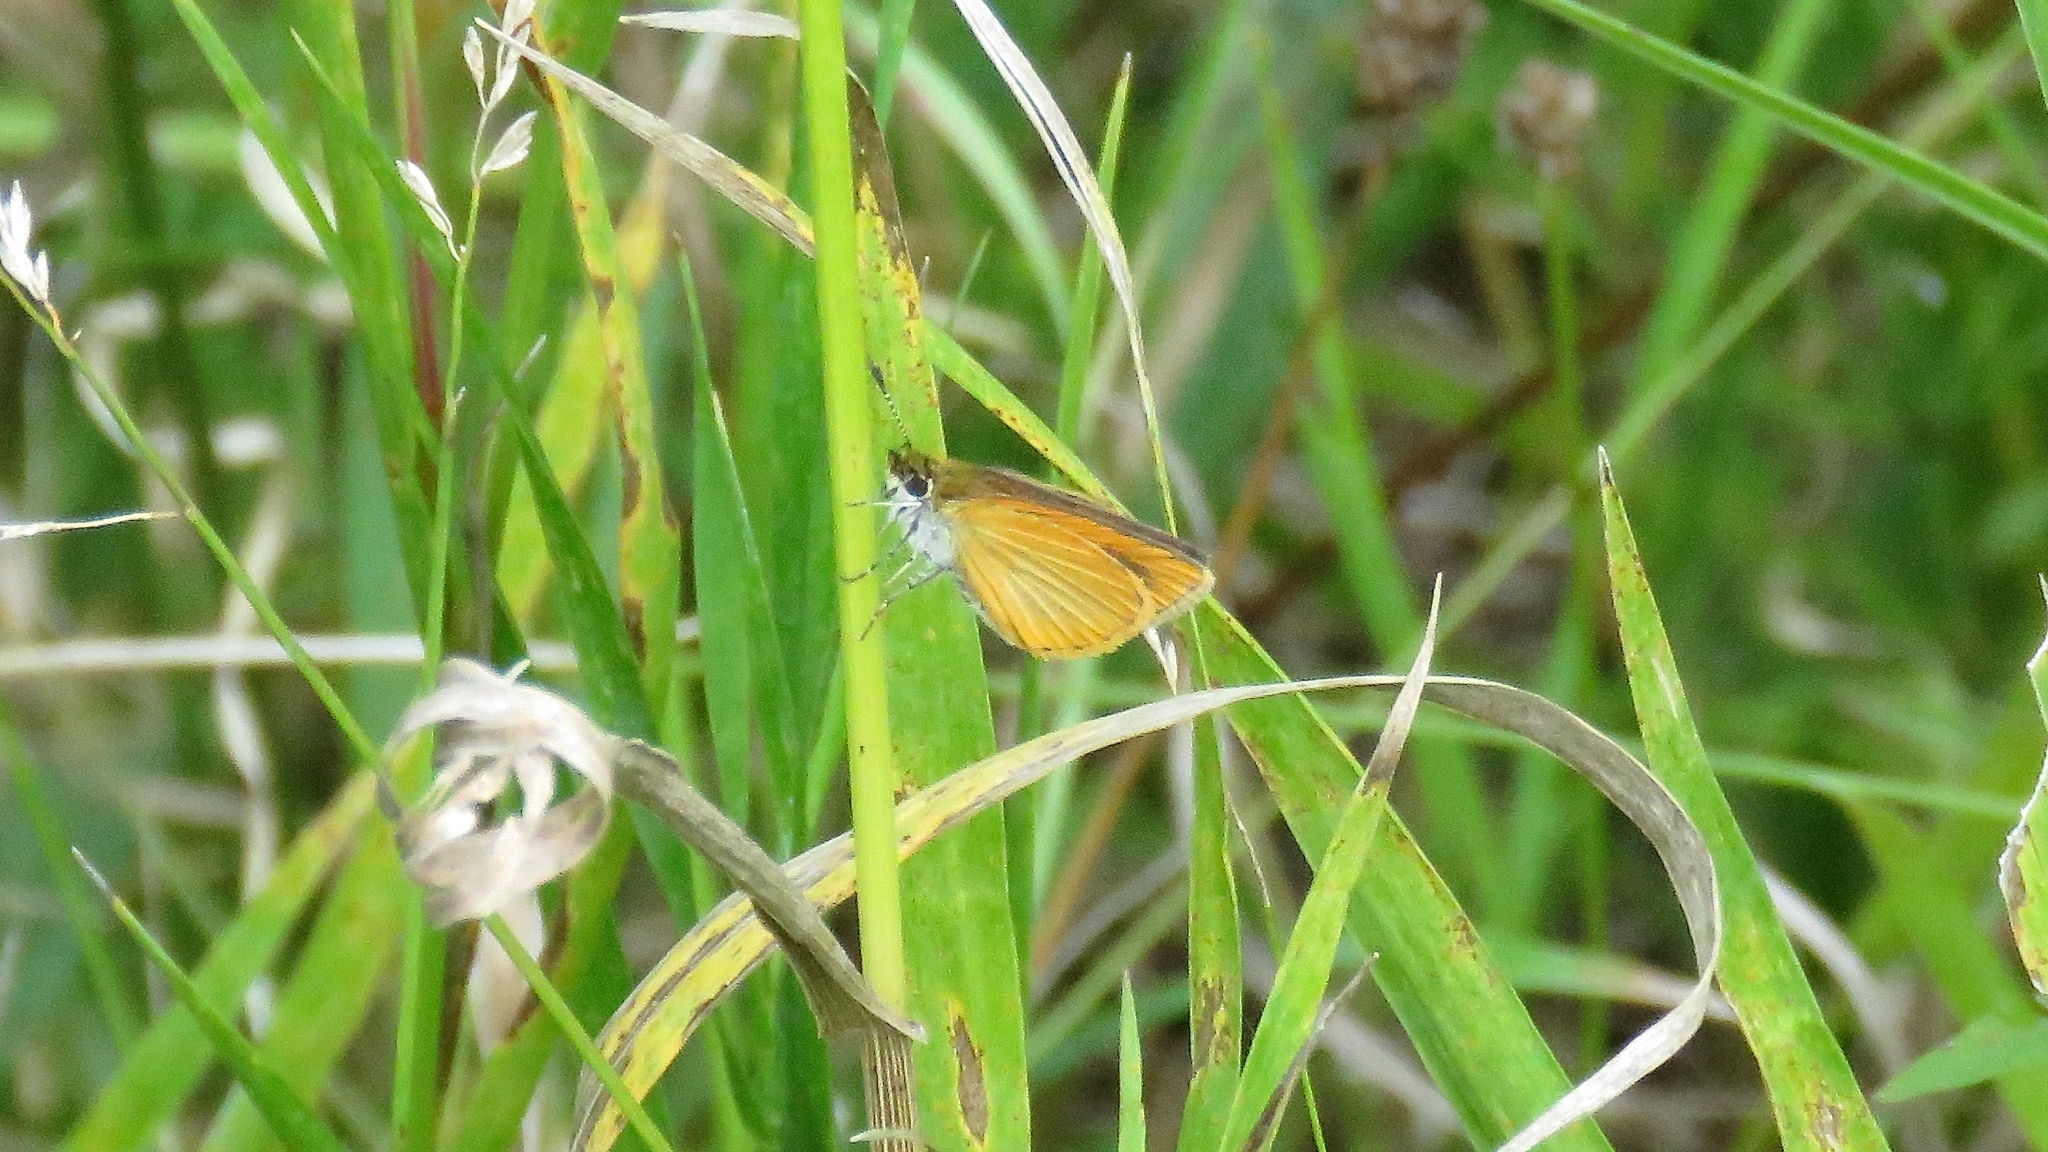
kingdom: Animalia
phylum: Arthropoda
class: Insecta
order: Lepidoptera
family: Hesperiidae
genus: Ancyloxypha
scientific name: Ancyloxypha numitor
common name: Least skipper
